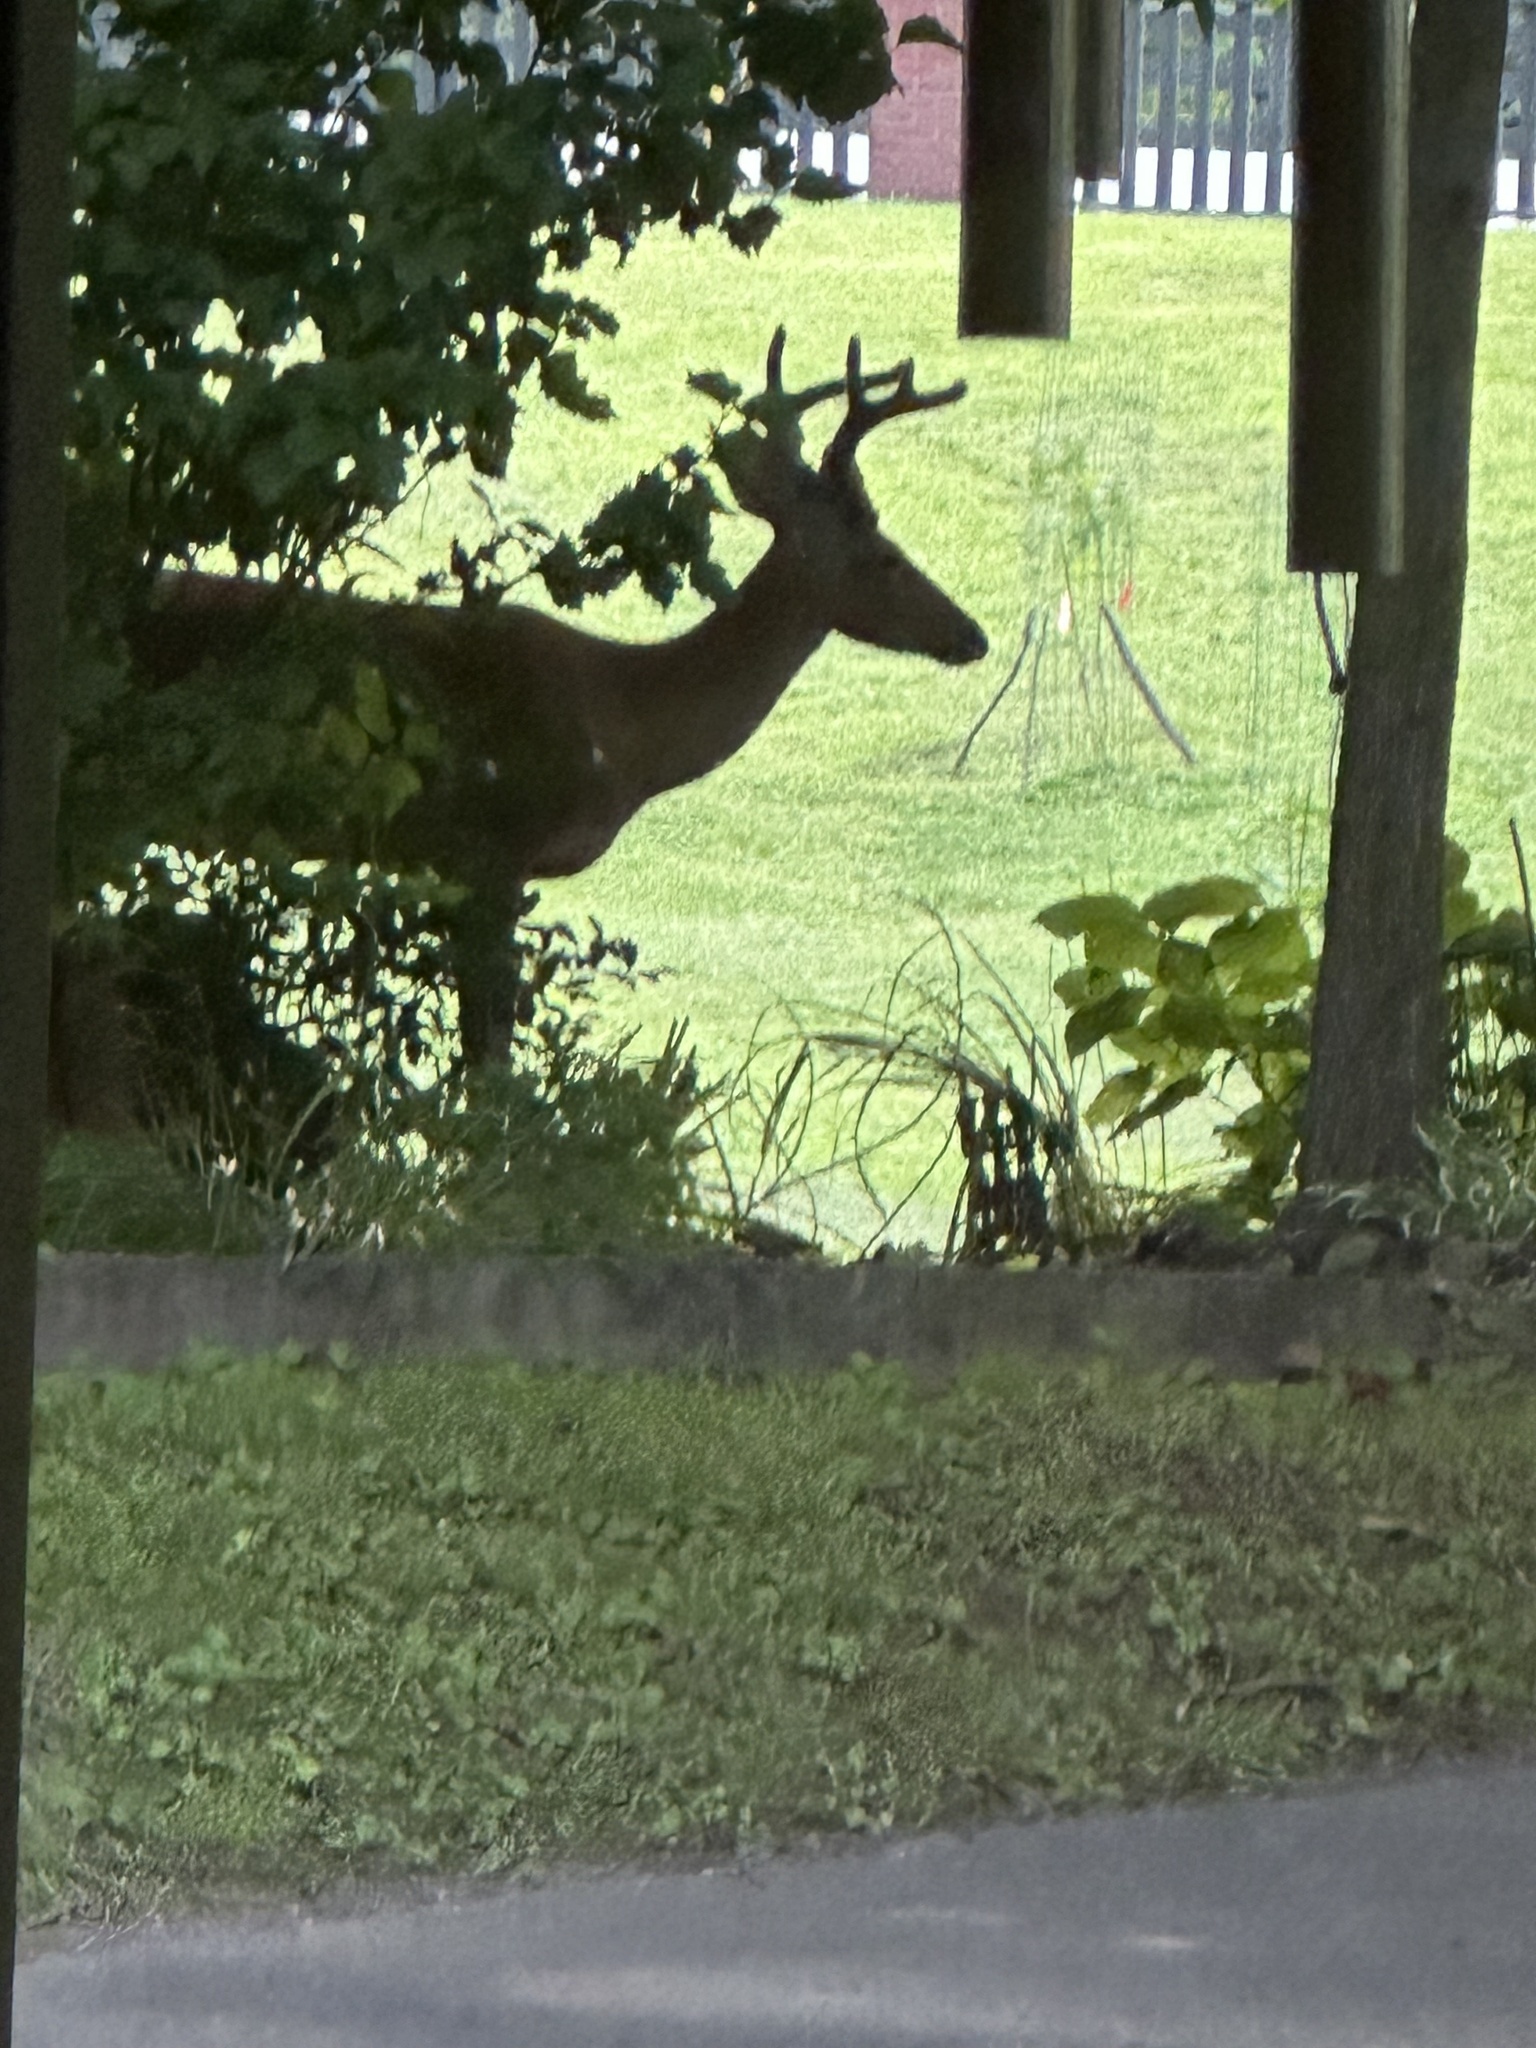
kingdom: Animalia
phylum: Chordata
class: Mammalia
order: Artiodactyla
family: Cervidae
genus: Odocoileus
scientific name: Odocoileus virginianus
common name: White-tailed deer
